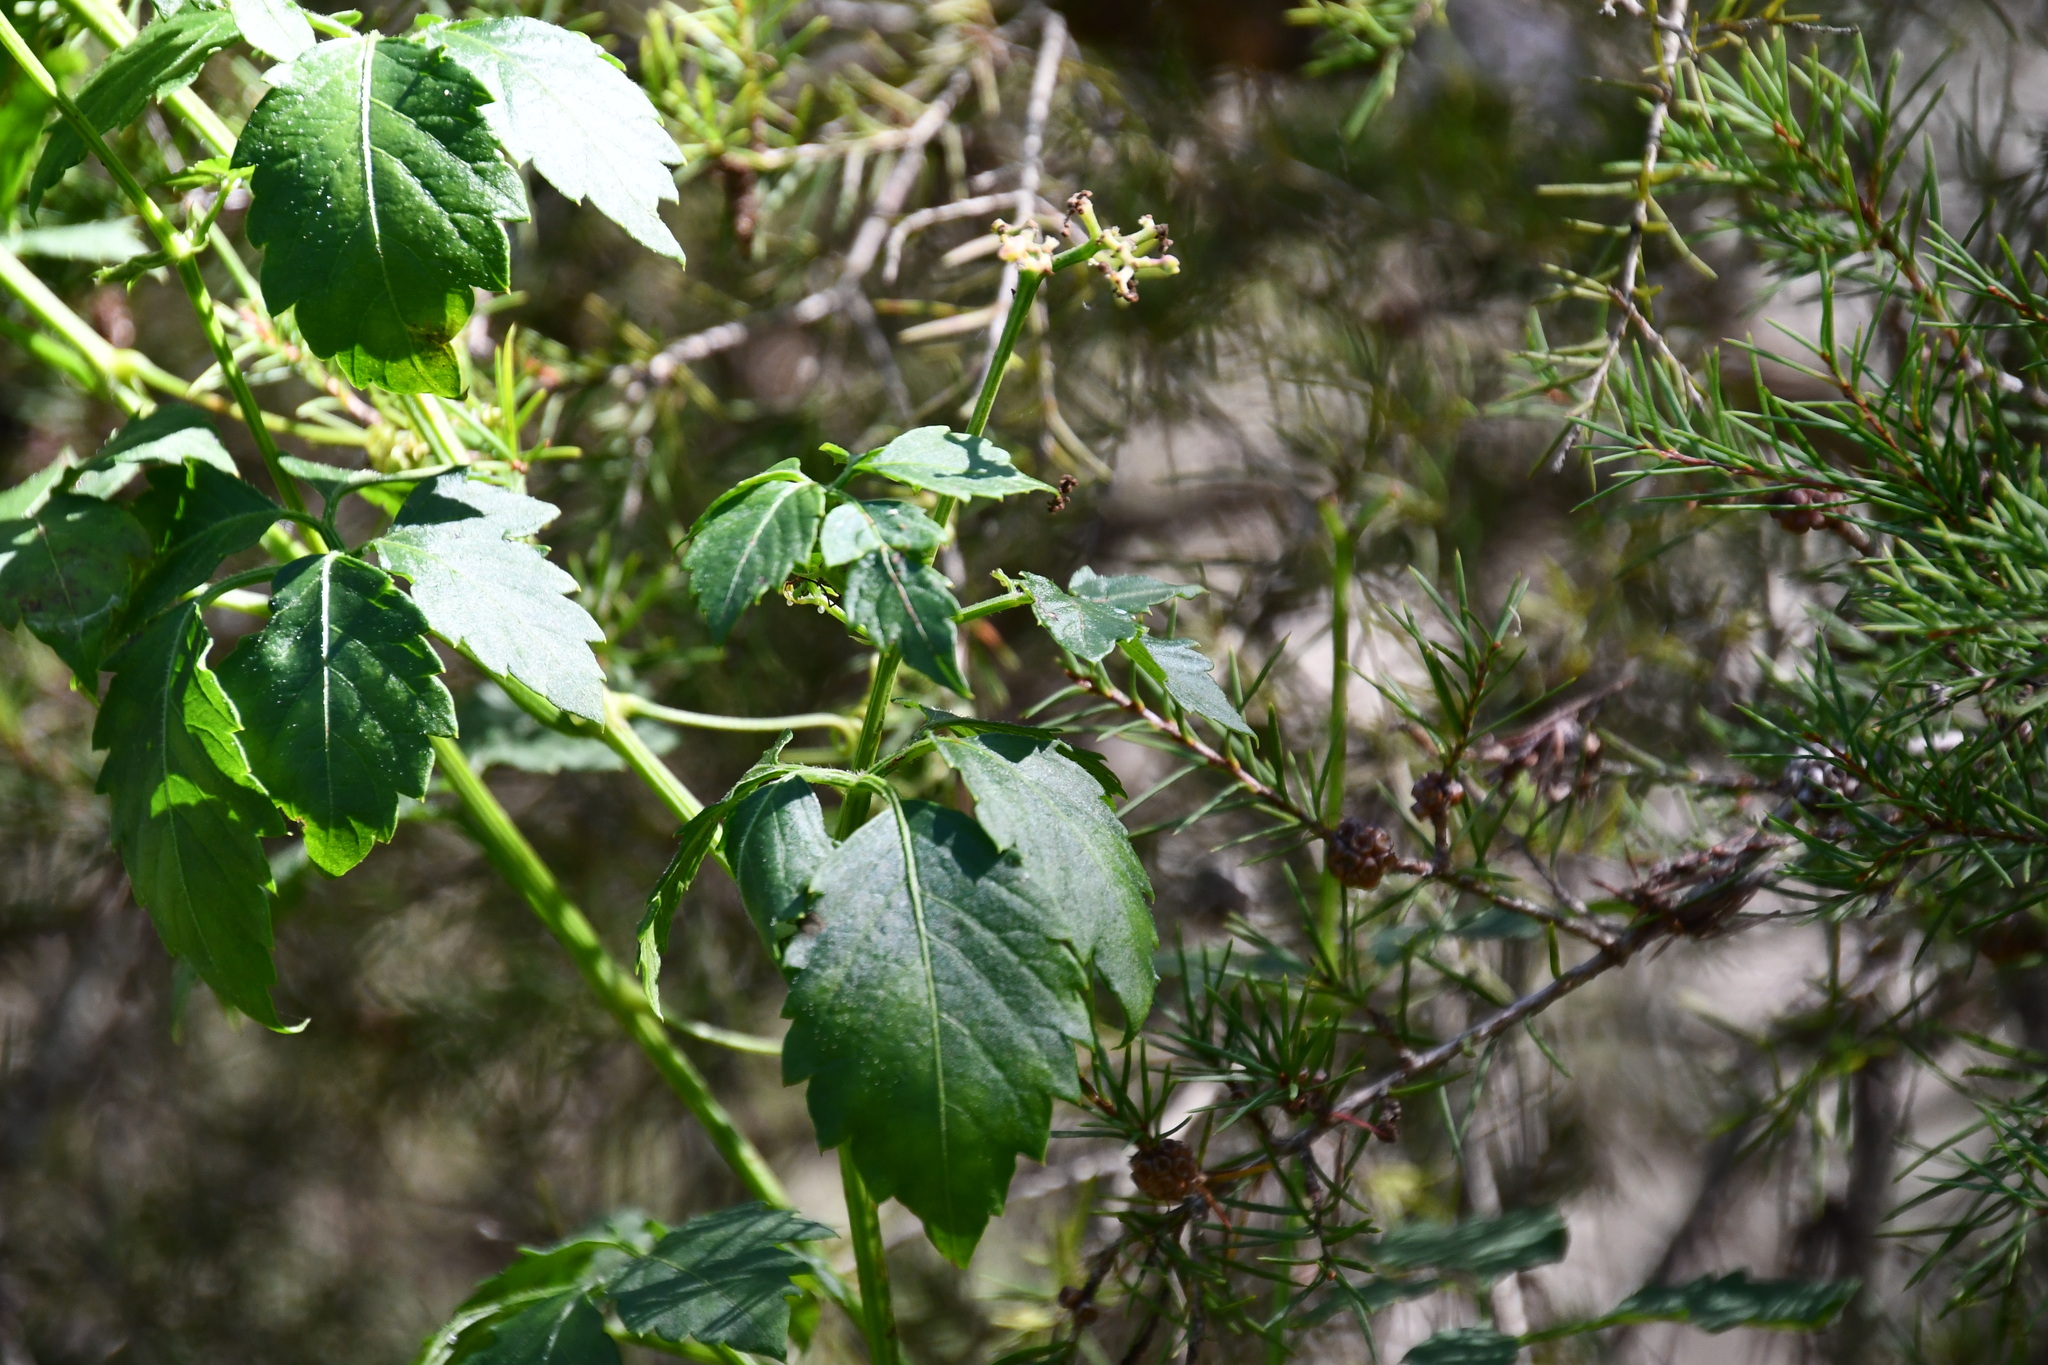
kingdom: Plantae
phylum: Tracheophyta
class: Magnoliopsida
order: Vitales
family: Vitaceae
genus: Causonis
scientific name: Causonis clematidea
